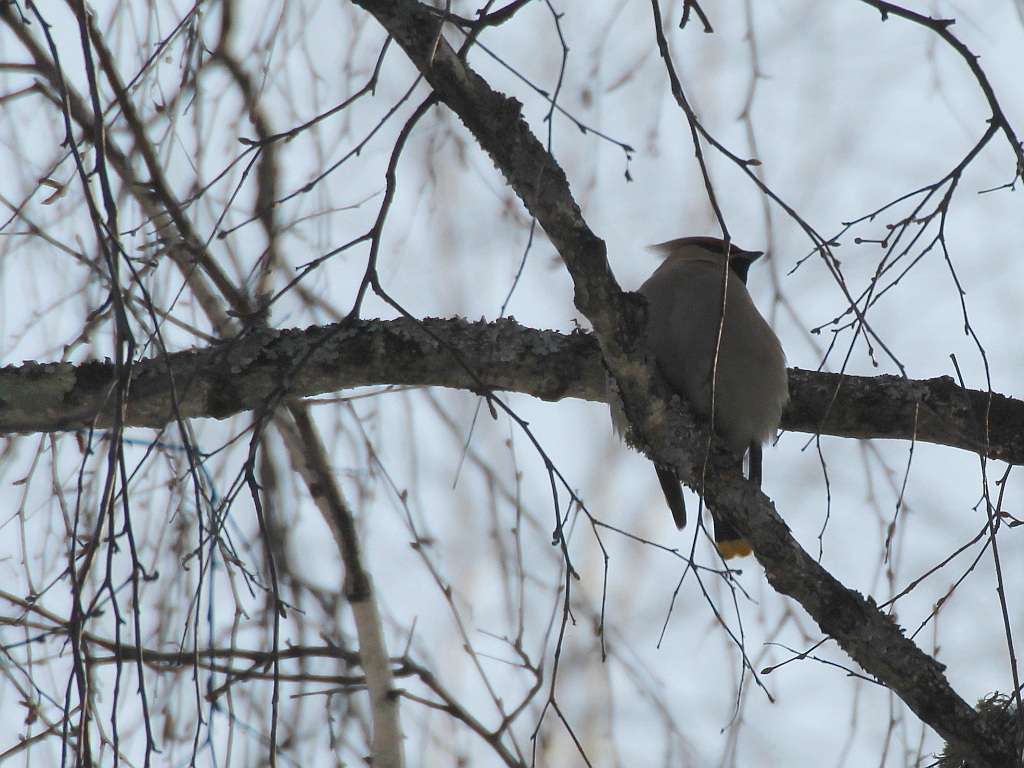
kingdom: Animalia
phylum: Chordata
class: Aves
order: Passeriformes
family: Bombycillidae
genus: Bombycilla
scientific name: Bombycilla garrulus
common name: Bohemian waxwing
